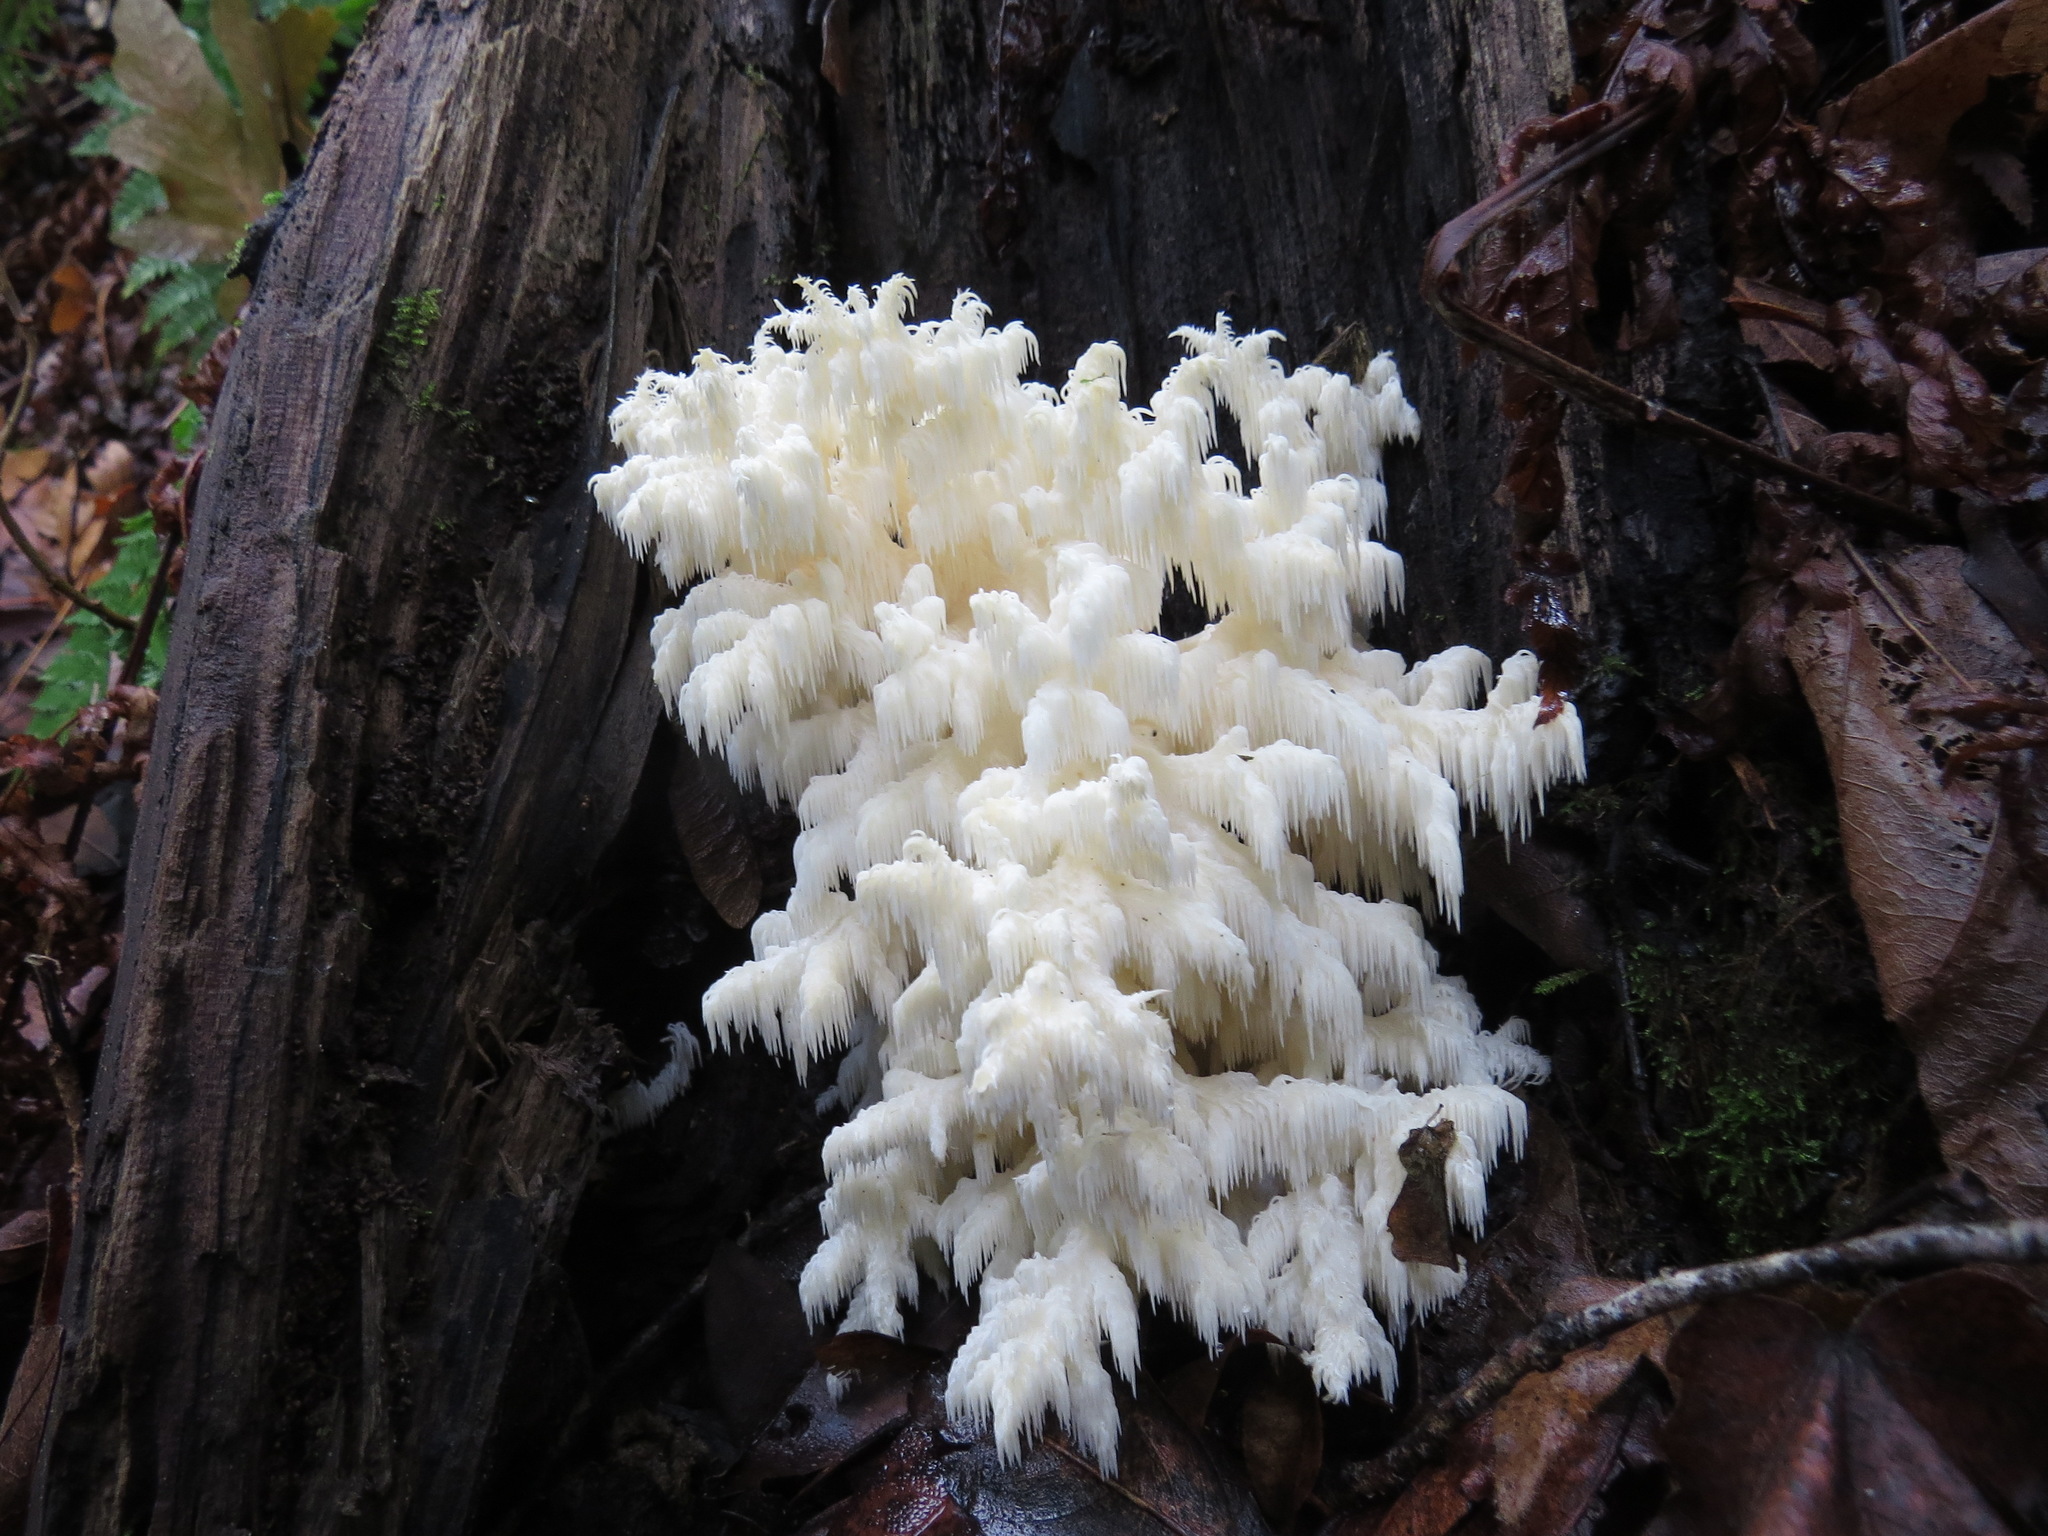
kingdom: Fungi
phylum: Basidiomycota
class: Agaricomycetes
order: Russulales
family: Hericiaceae
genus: Hericium
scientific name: Hericium coralloides
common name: Coral tooth
